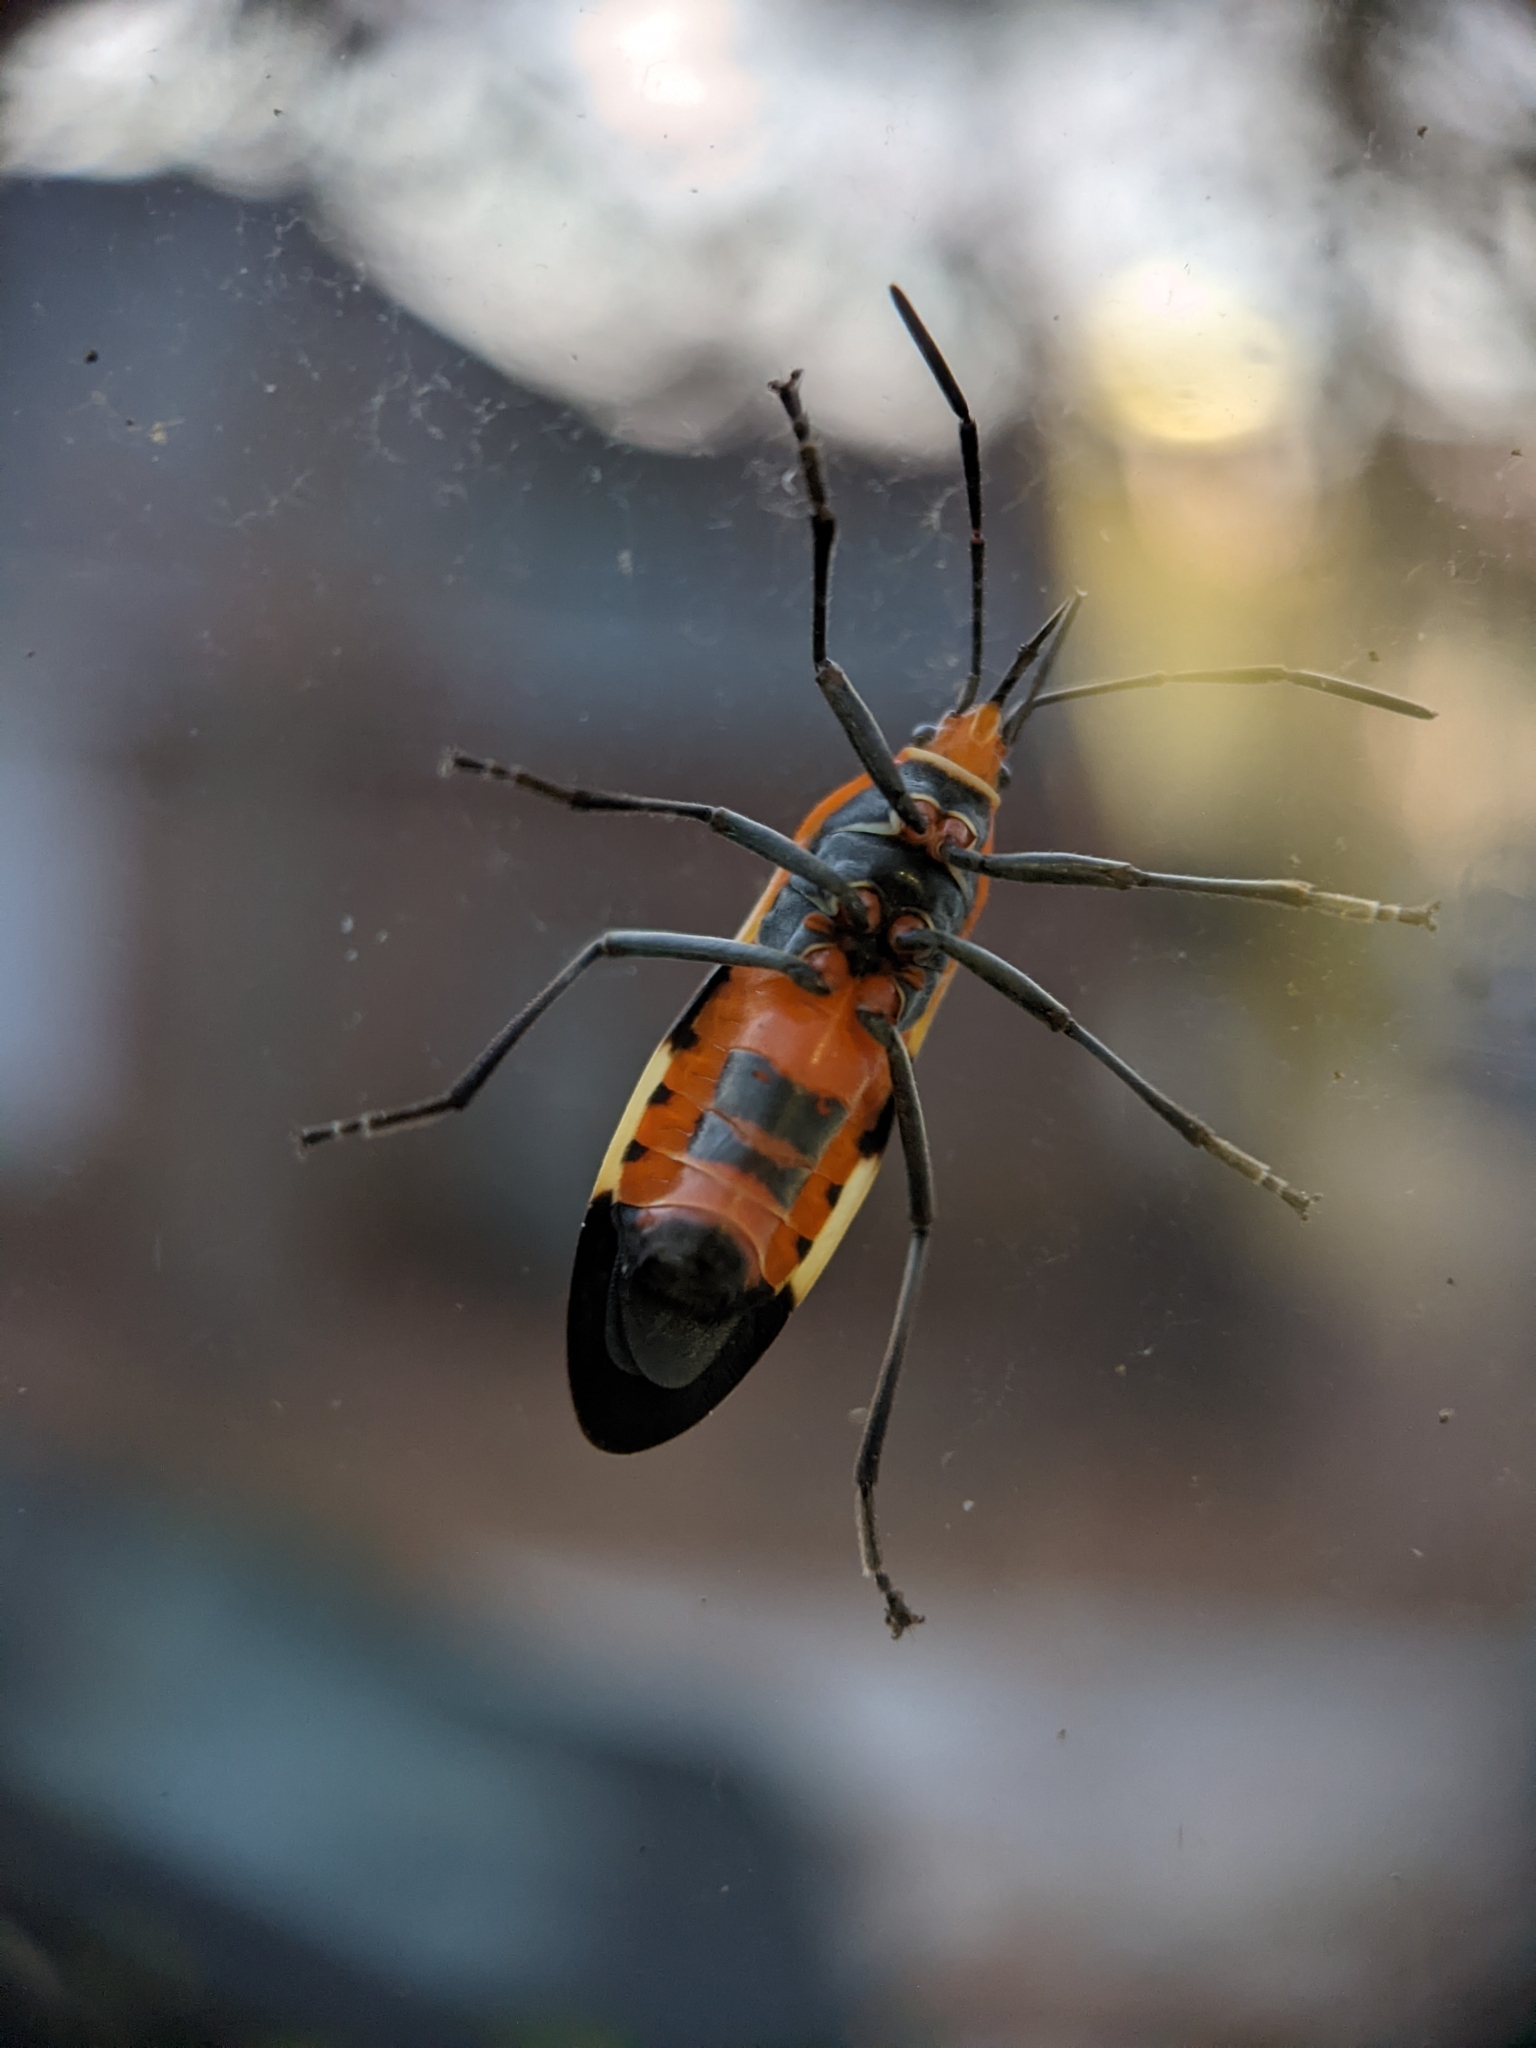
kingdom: Animalia
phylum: Arthropoda
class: Insecta
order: Hemiptera
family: Lygaeidae
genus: Oncopeltus
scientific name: Oncopeltus fasciatus
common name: Large milkweed bug
